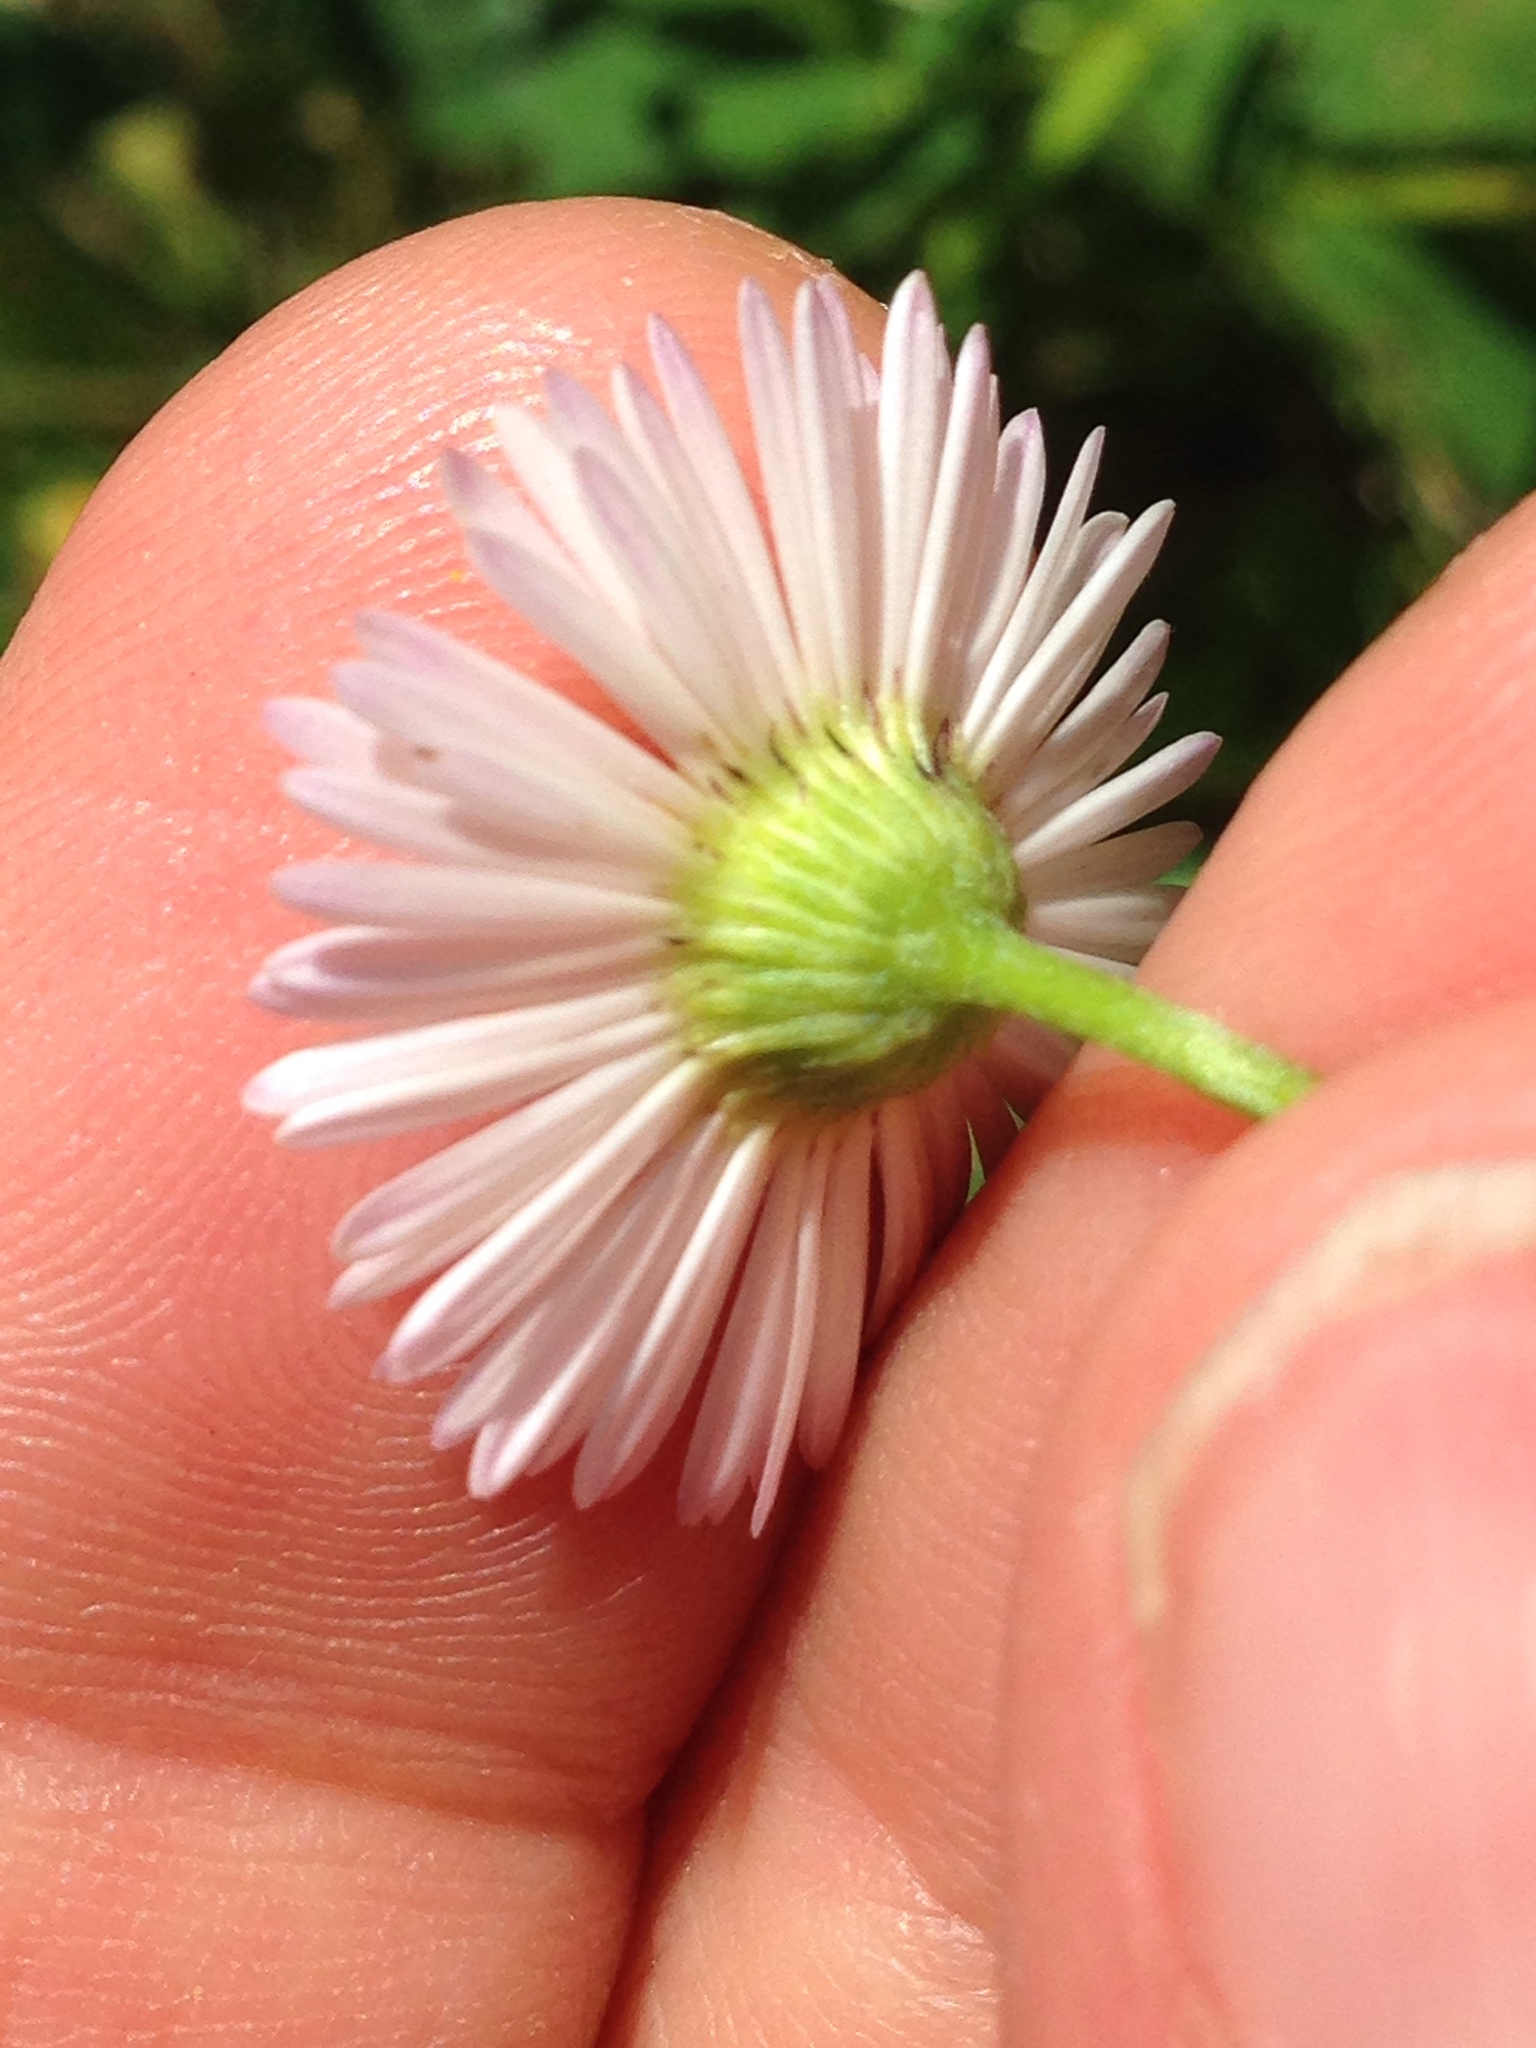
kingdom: Plantae
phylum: Tracheophyta
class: Magnoliopsida
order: Asterales
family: Asteraceae
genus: Erigeron
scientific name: Erigeron karvinskianus
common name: Mexican fleabane
